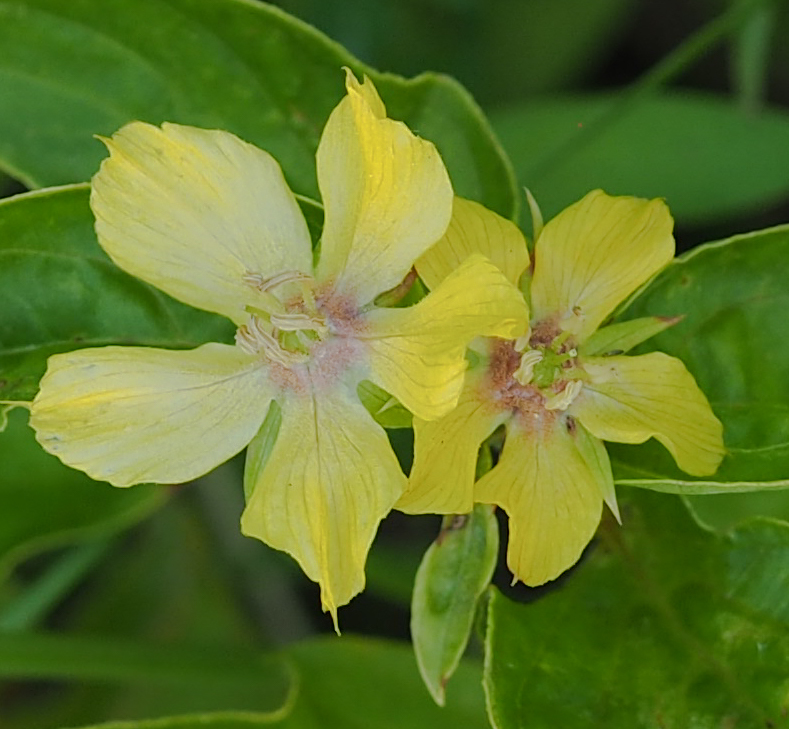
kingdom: Plantae
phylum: Tracheophyta
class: Magnoliopsida
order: Ericales
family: Primulaceae
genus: Lysimachia
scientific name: Lysimachia ciliata
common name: Fringed loosestrife
